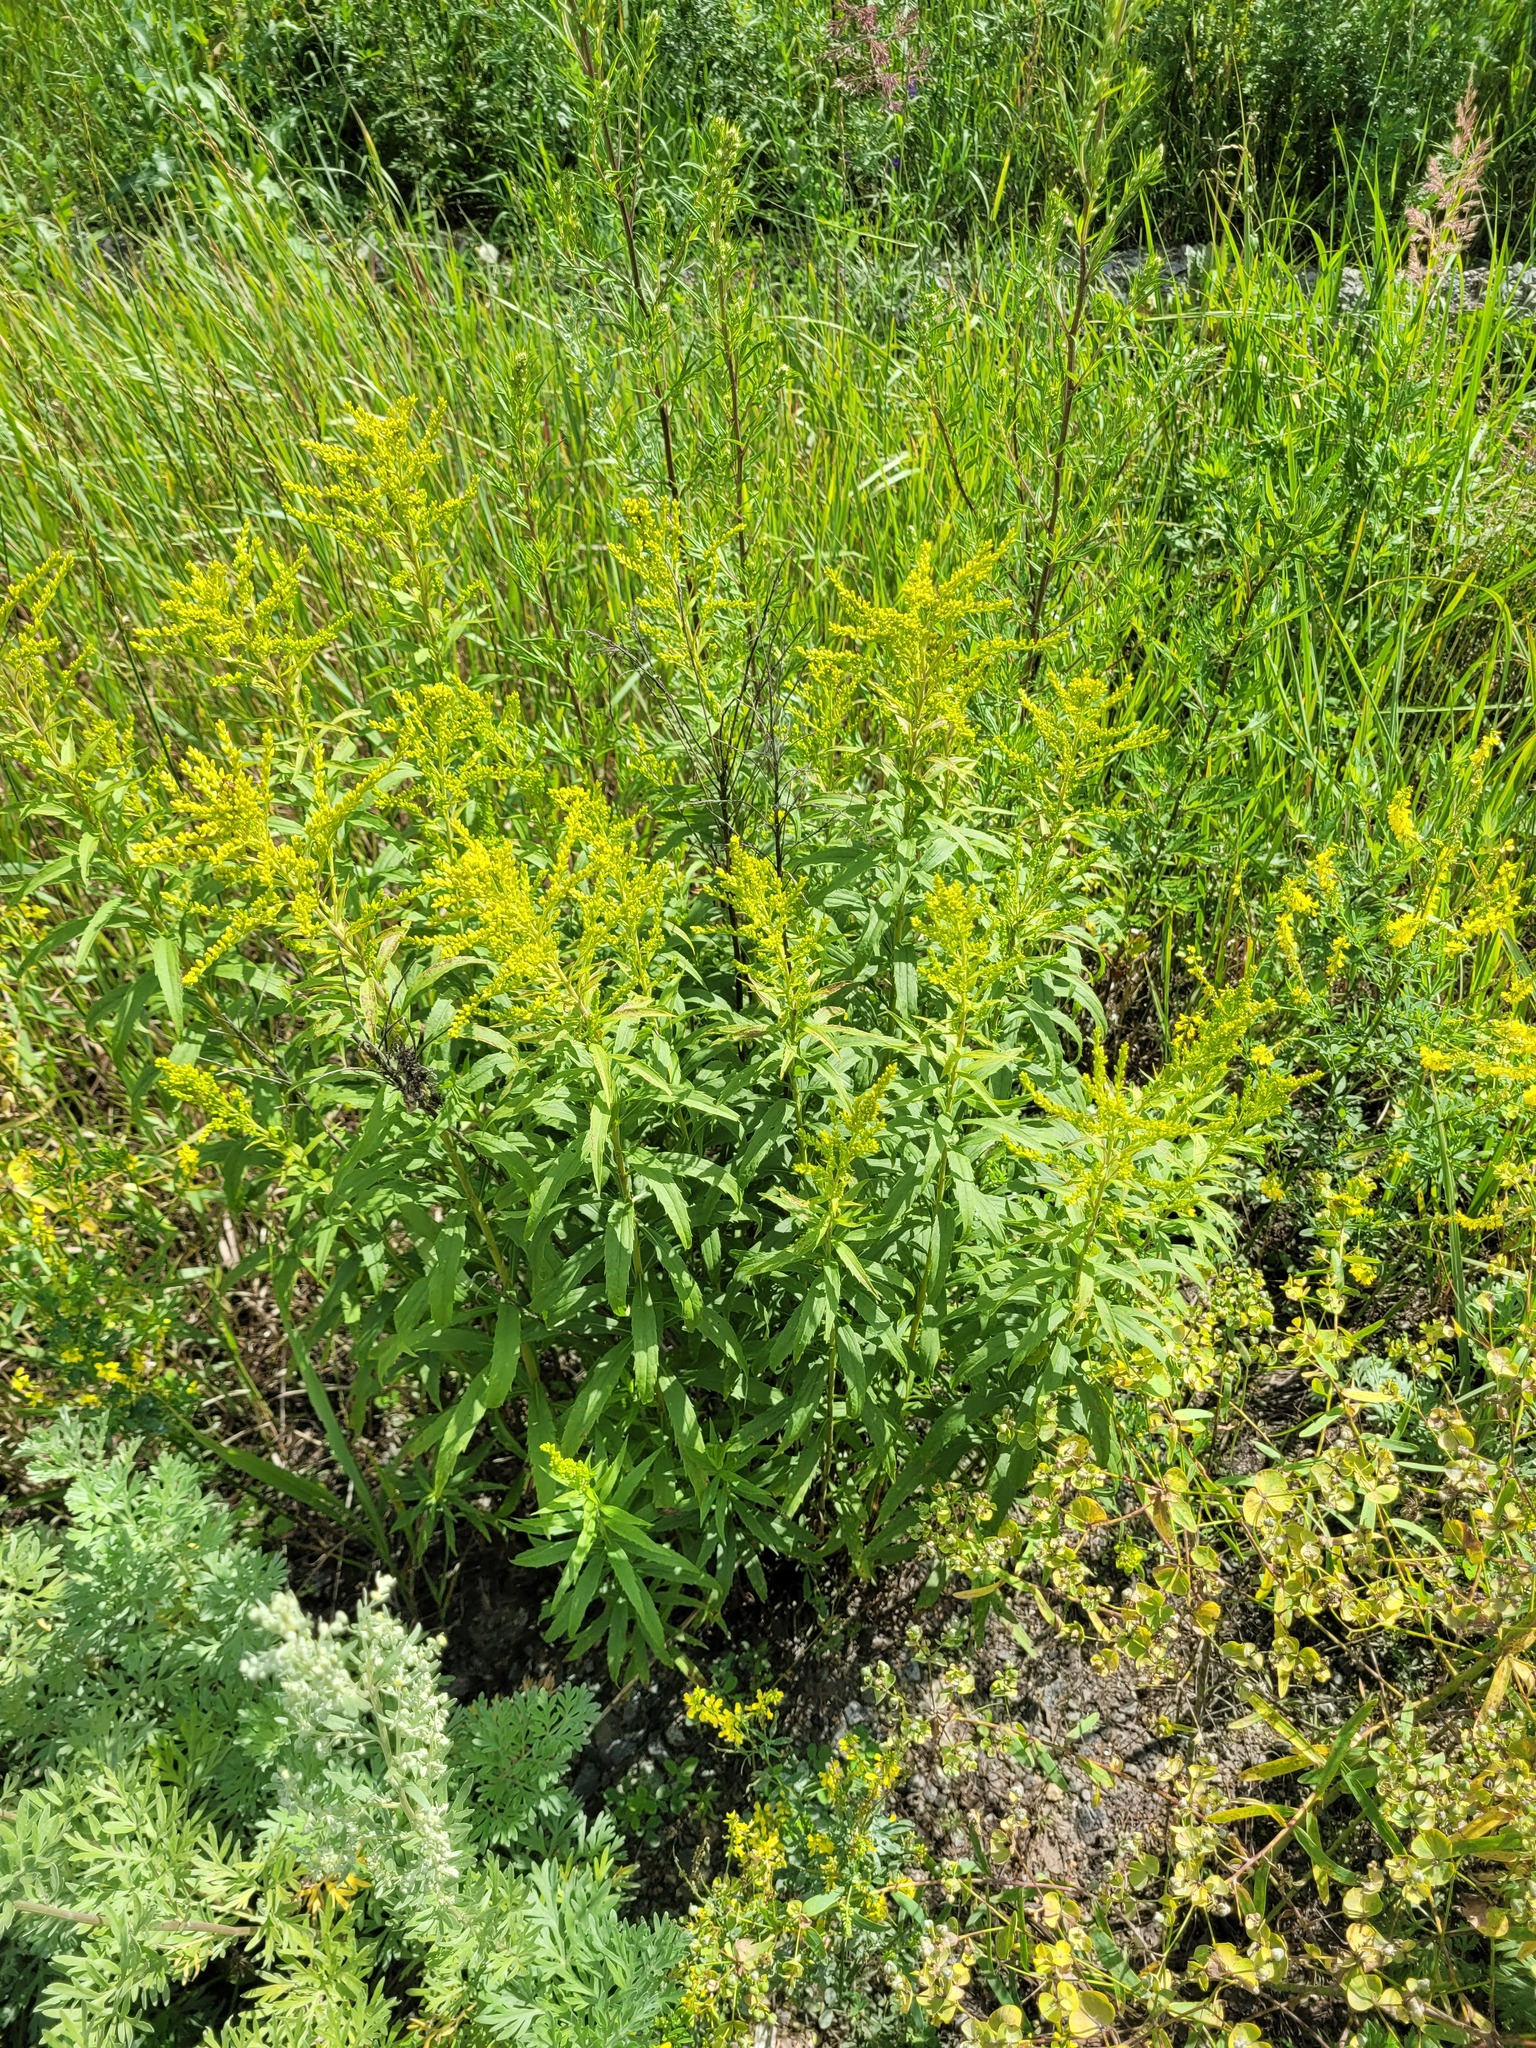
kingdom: Plantae
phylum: Tracheophyta
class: Magnoliopsida
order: Asterales
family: Asteraceae
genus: Solidago
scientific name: Solidago canadensis
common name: Canada goldenrod
